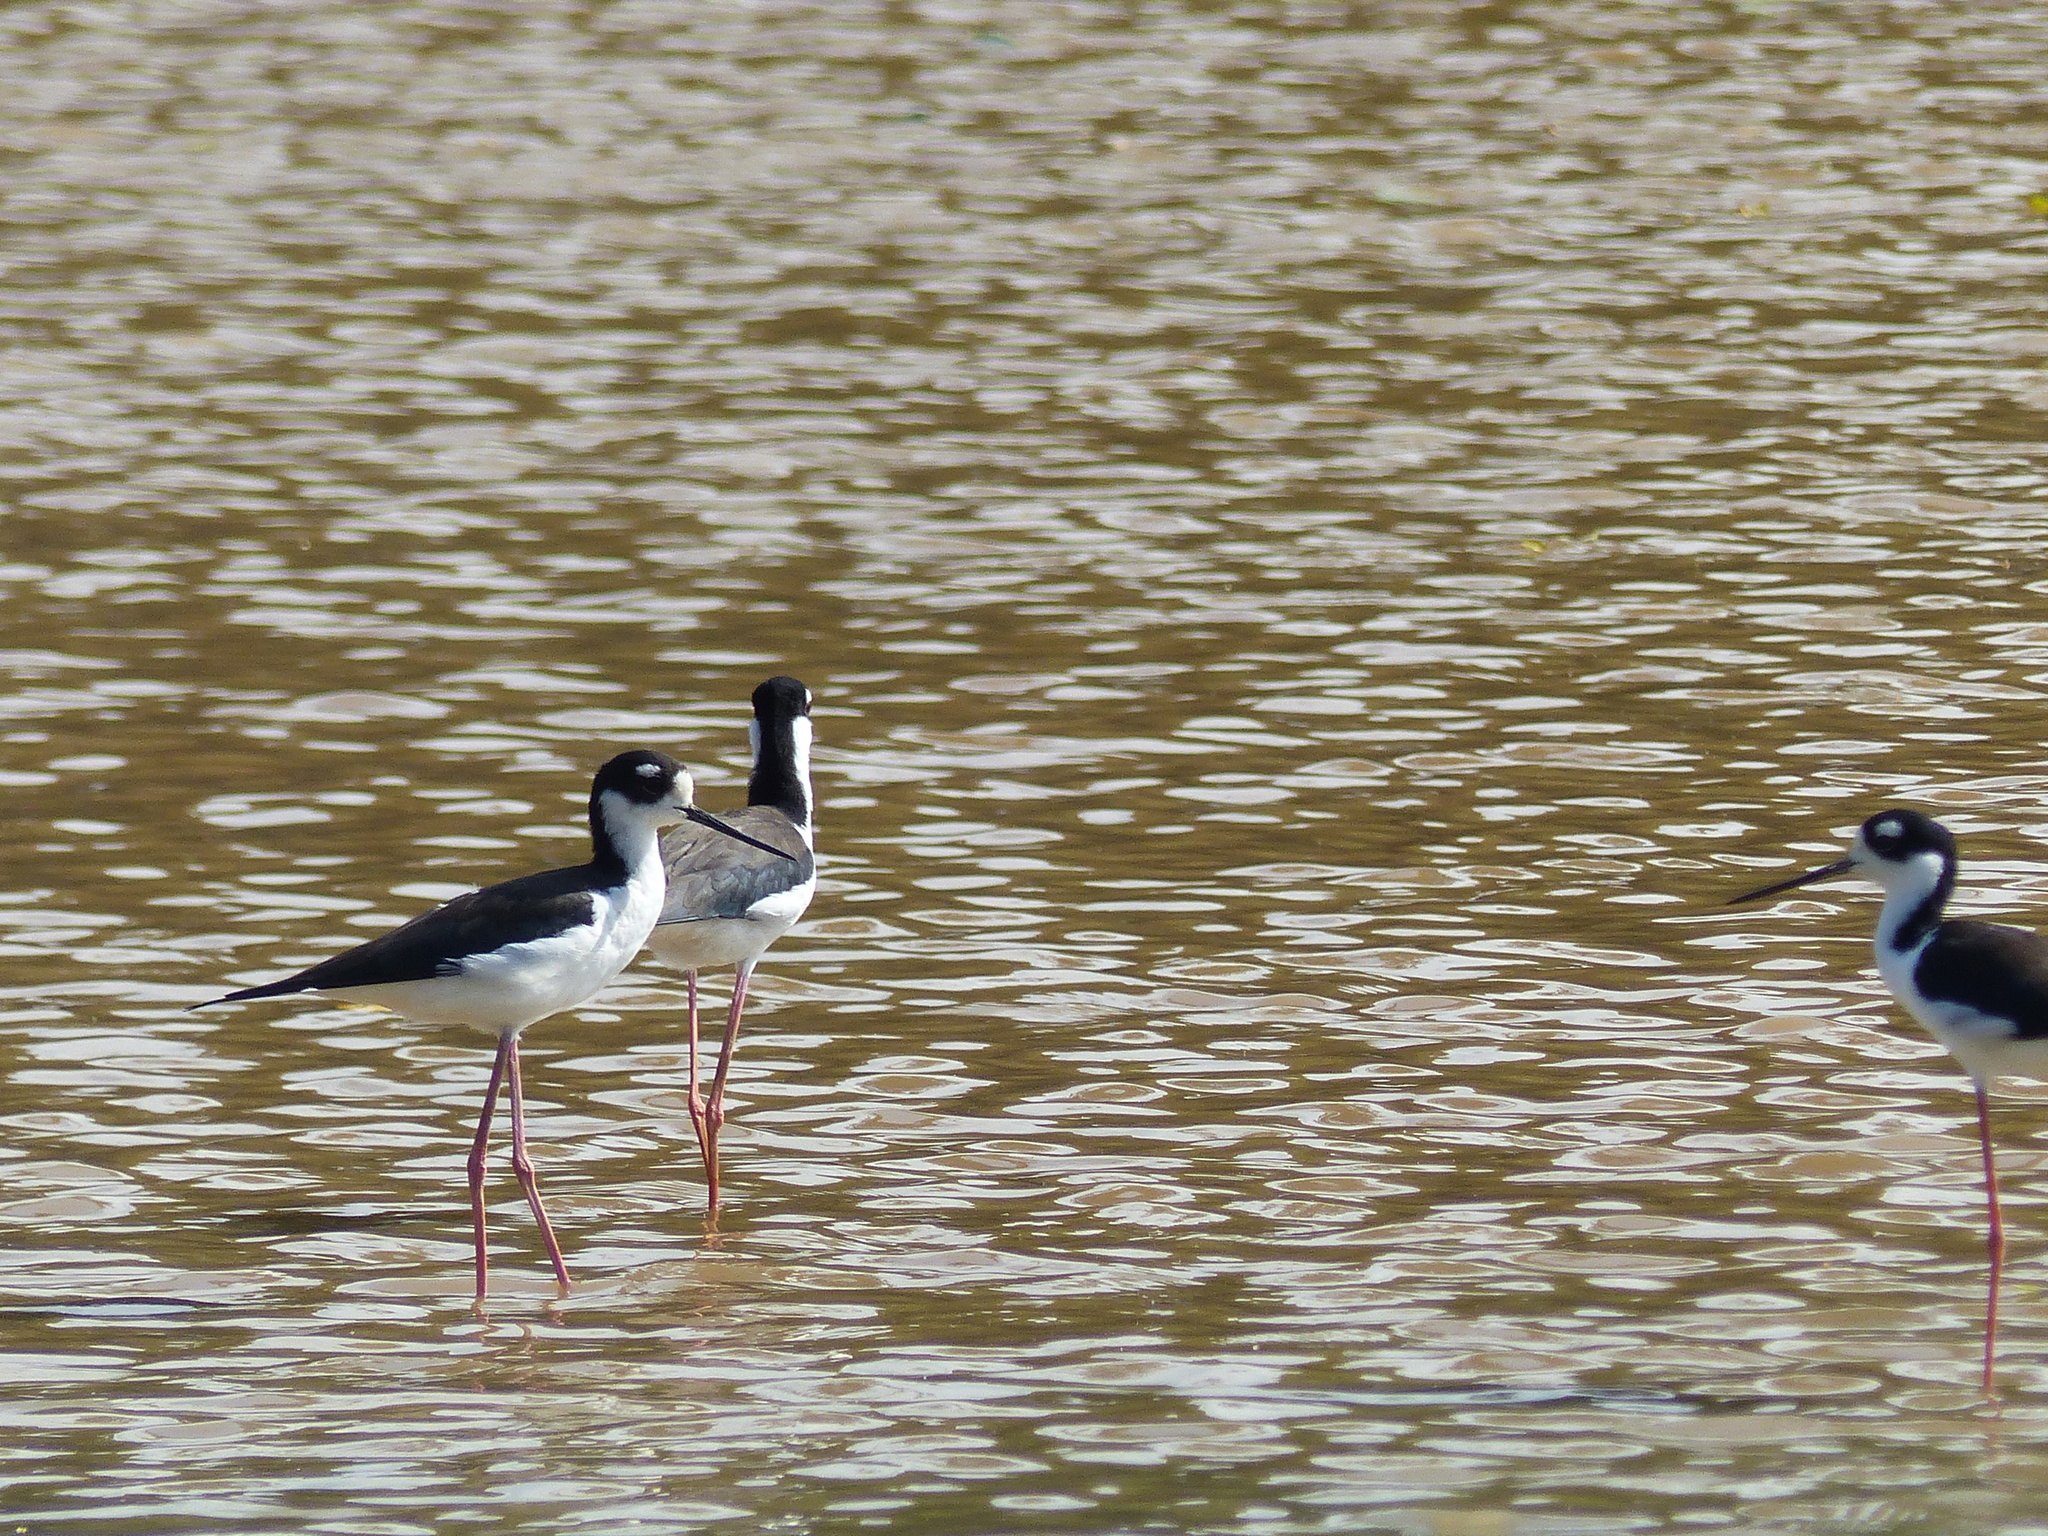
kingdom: Animalia
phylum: Chordata
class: Aves
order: Charadriiformes
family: Recurvirostridae
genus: Himantopus
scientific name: Himantopus mexicanus
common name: Black-necked stilt
